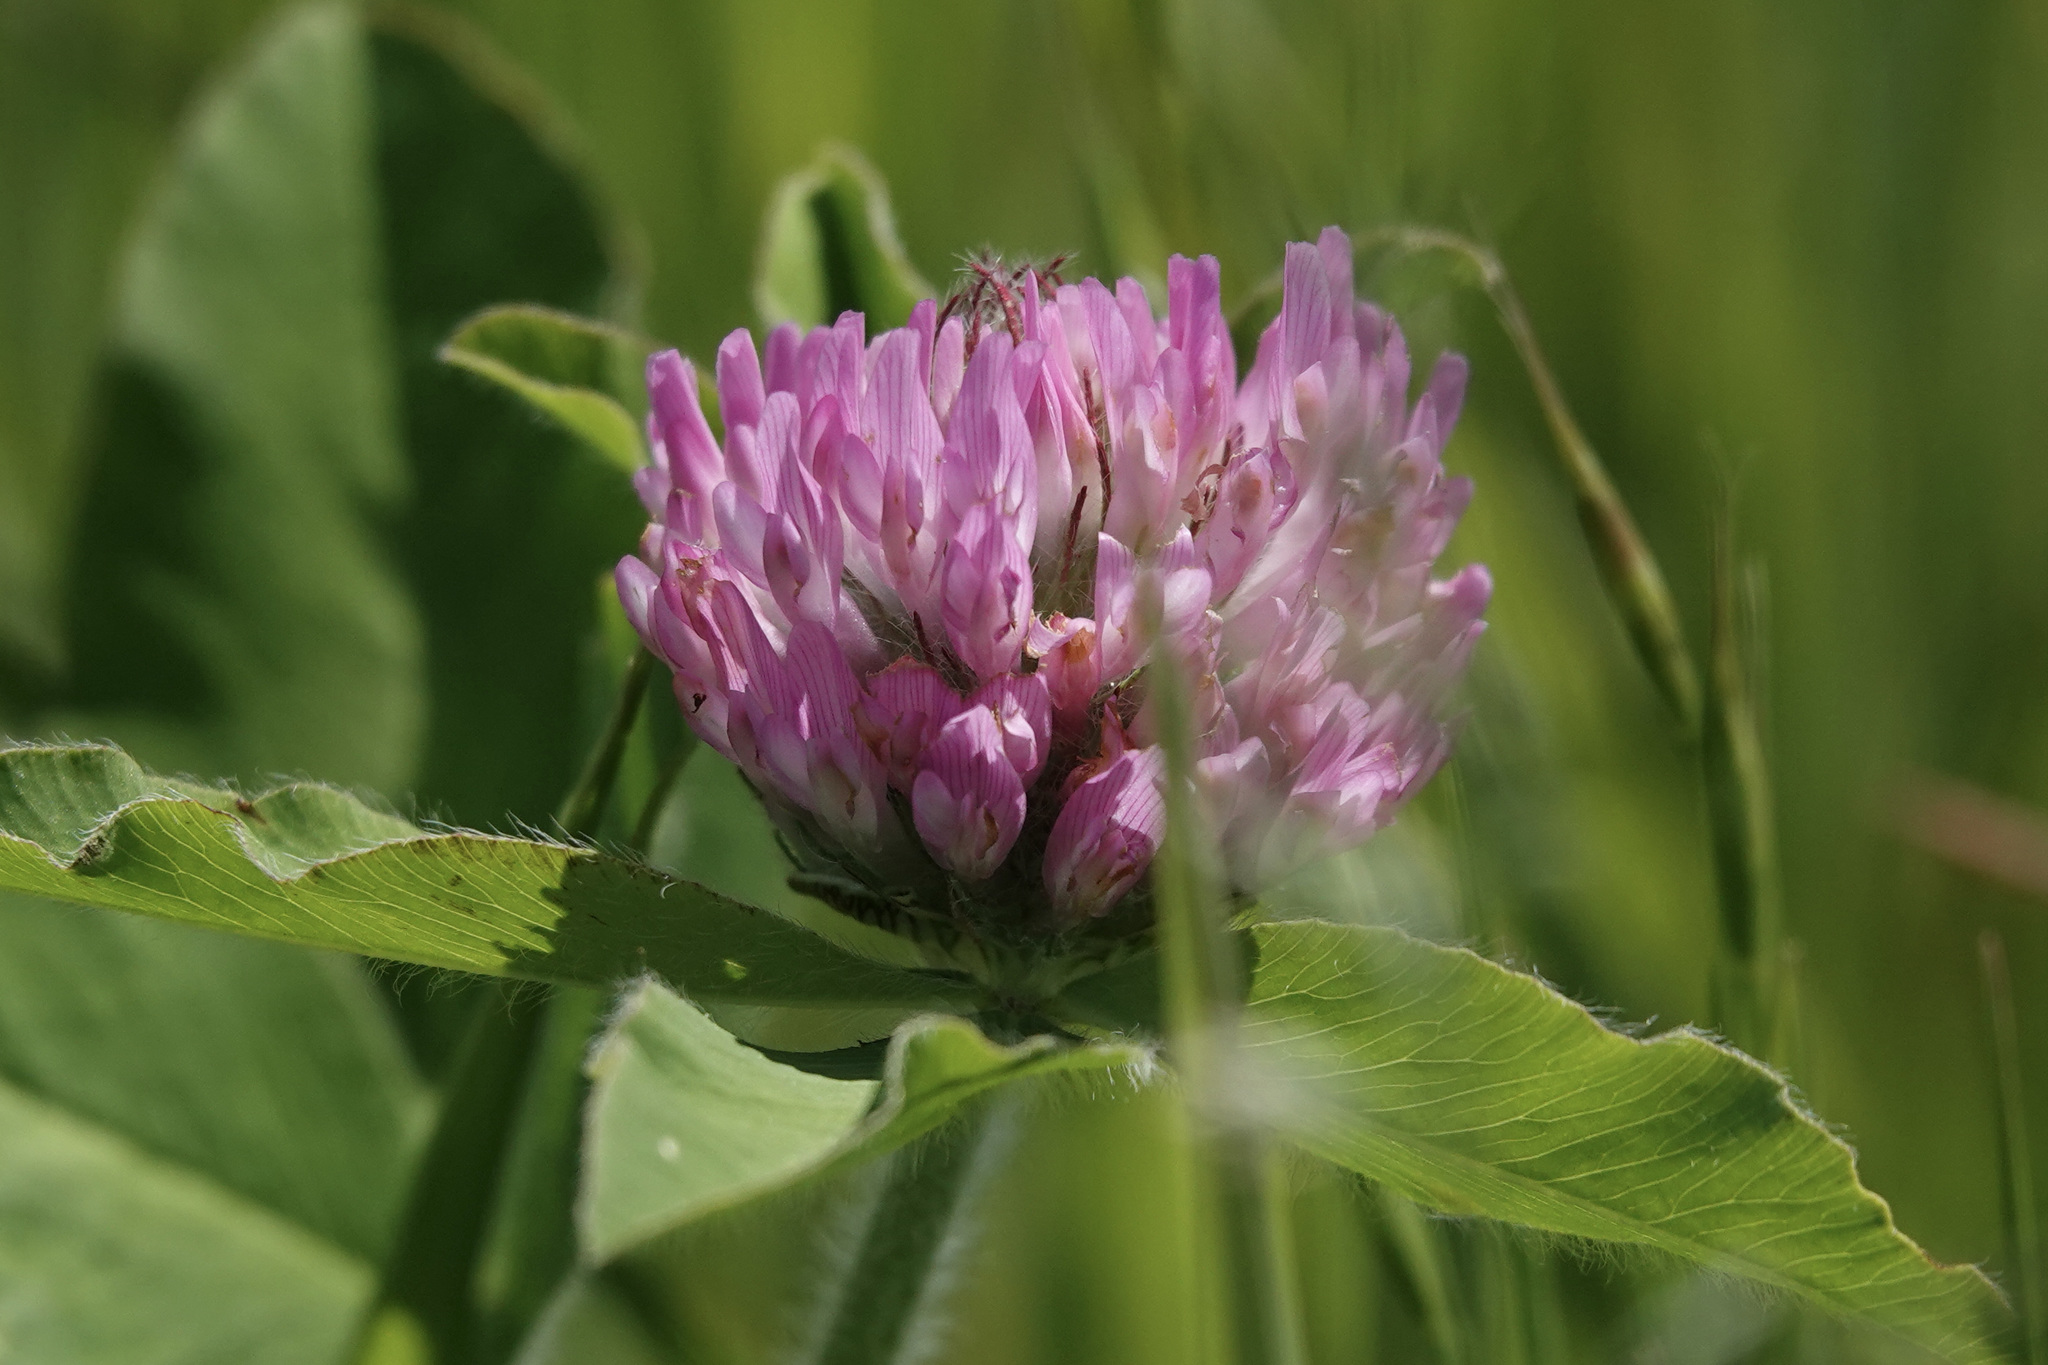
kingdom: Plantae
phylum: Tracheophyta
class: Magnoliopsida
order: Fabales
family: Fabaceae
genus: Trifolium
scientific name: Trifolium pratense
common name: Red clover
